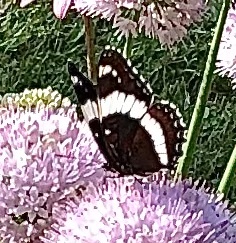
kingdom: Animalia
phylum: Arthropoda
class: Insecta
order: Lepidoptera
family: Nymphalidae
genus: Limenitis
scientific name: Limenitis arthemis
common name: Red-spotted admiral
